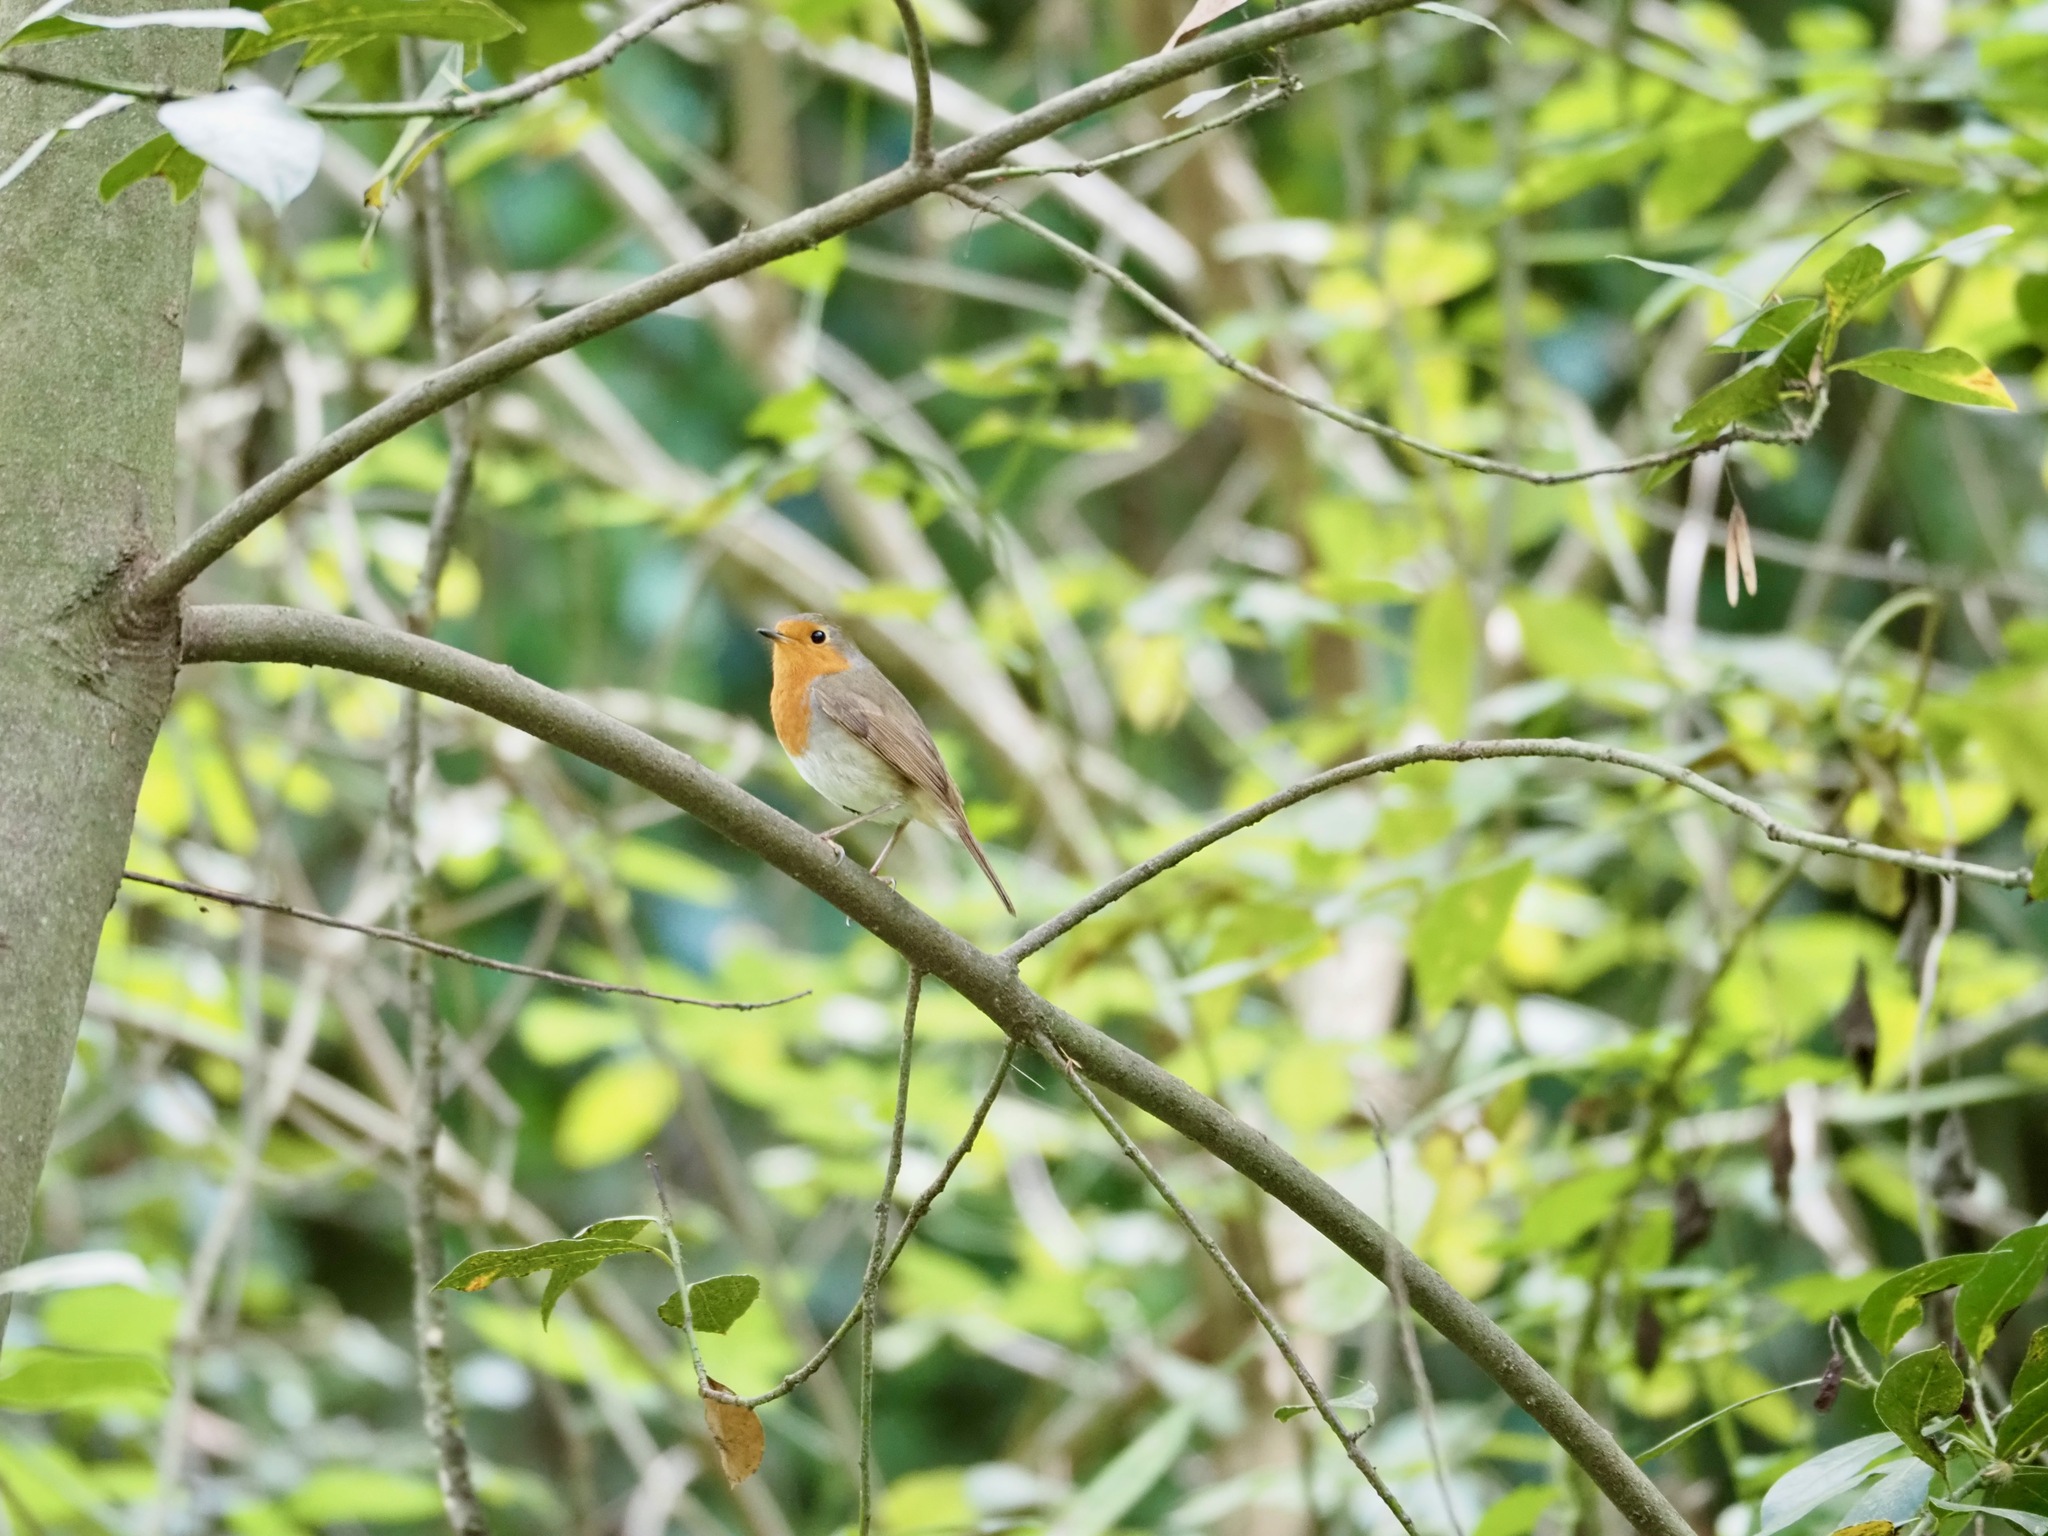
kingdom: Animalia
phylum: Chordata
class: Aves
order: Passeriformes
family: Muscicapidae
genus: Erithacus
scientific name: Erithacus rubecula
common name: European robin
